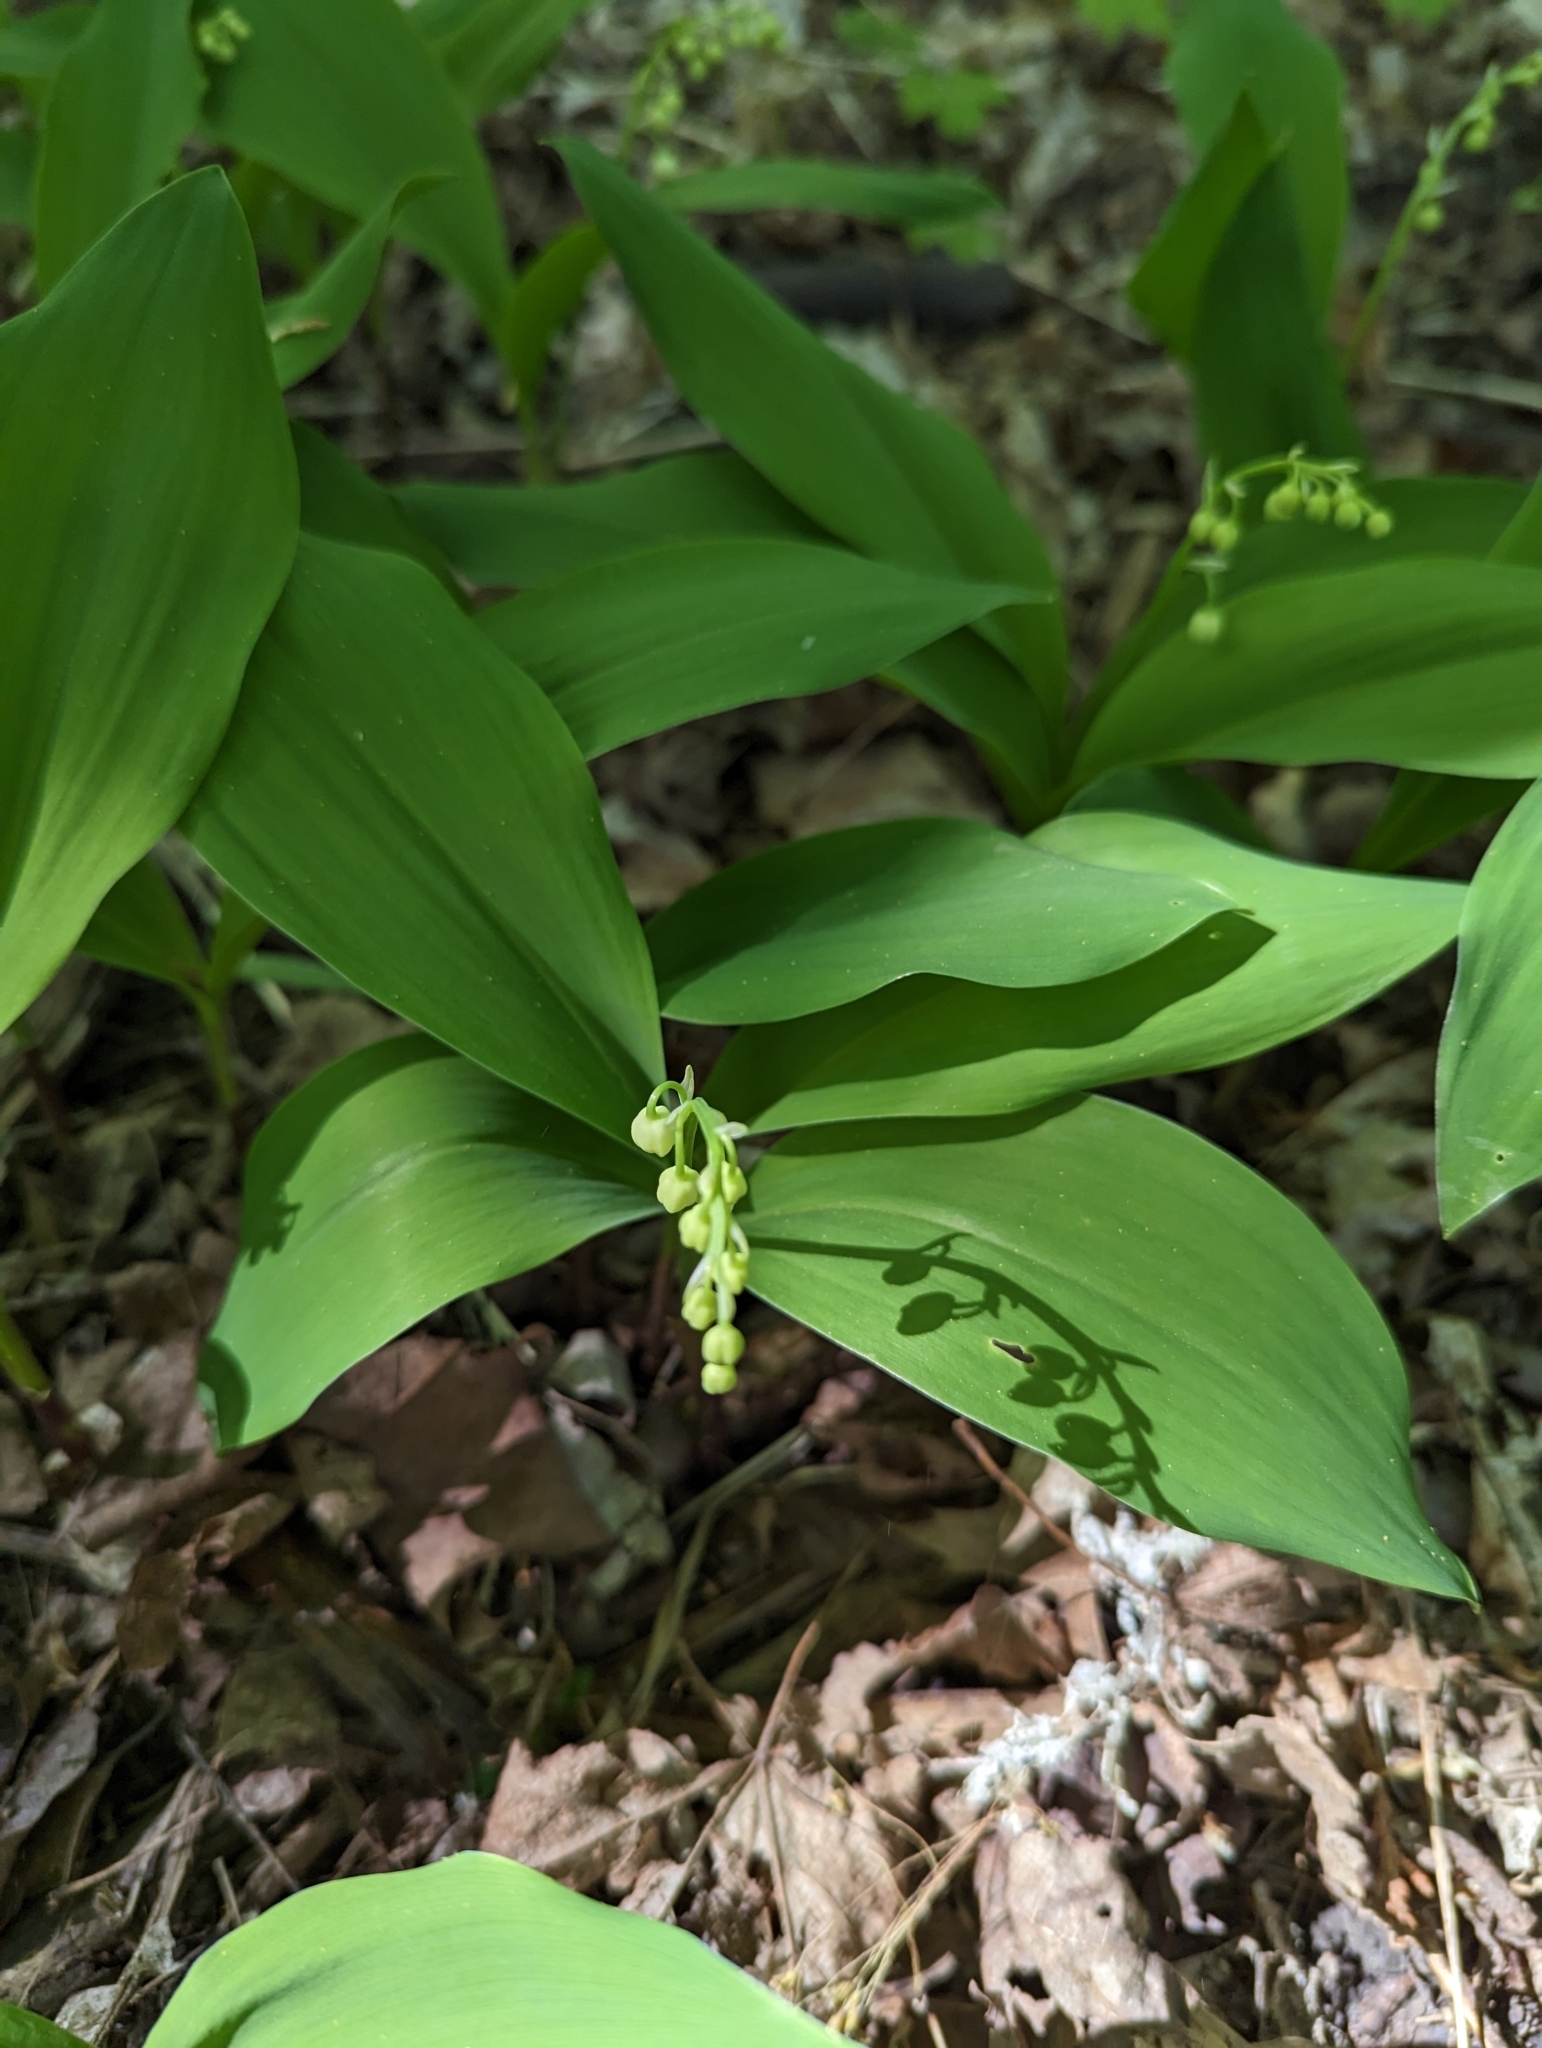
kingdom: Plantae
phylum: Tracheophyta
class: Liliopsida
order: Asparagales
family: Asparagaceae
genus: Convallaria
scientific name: Convallaria majalis
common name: Lily-of-the-valley
